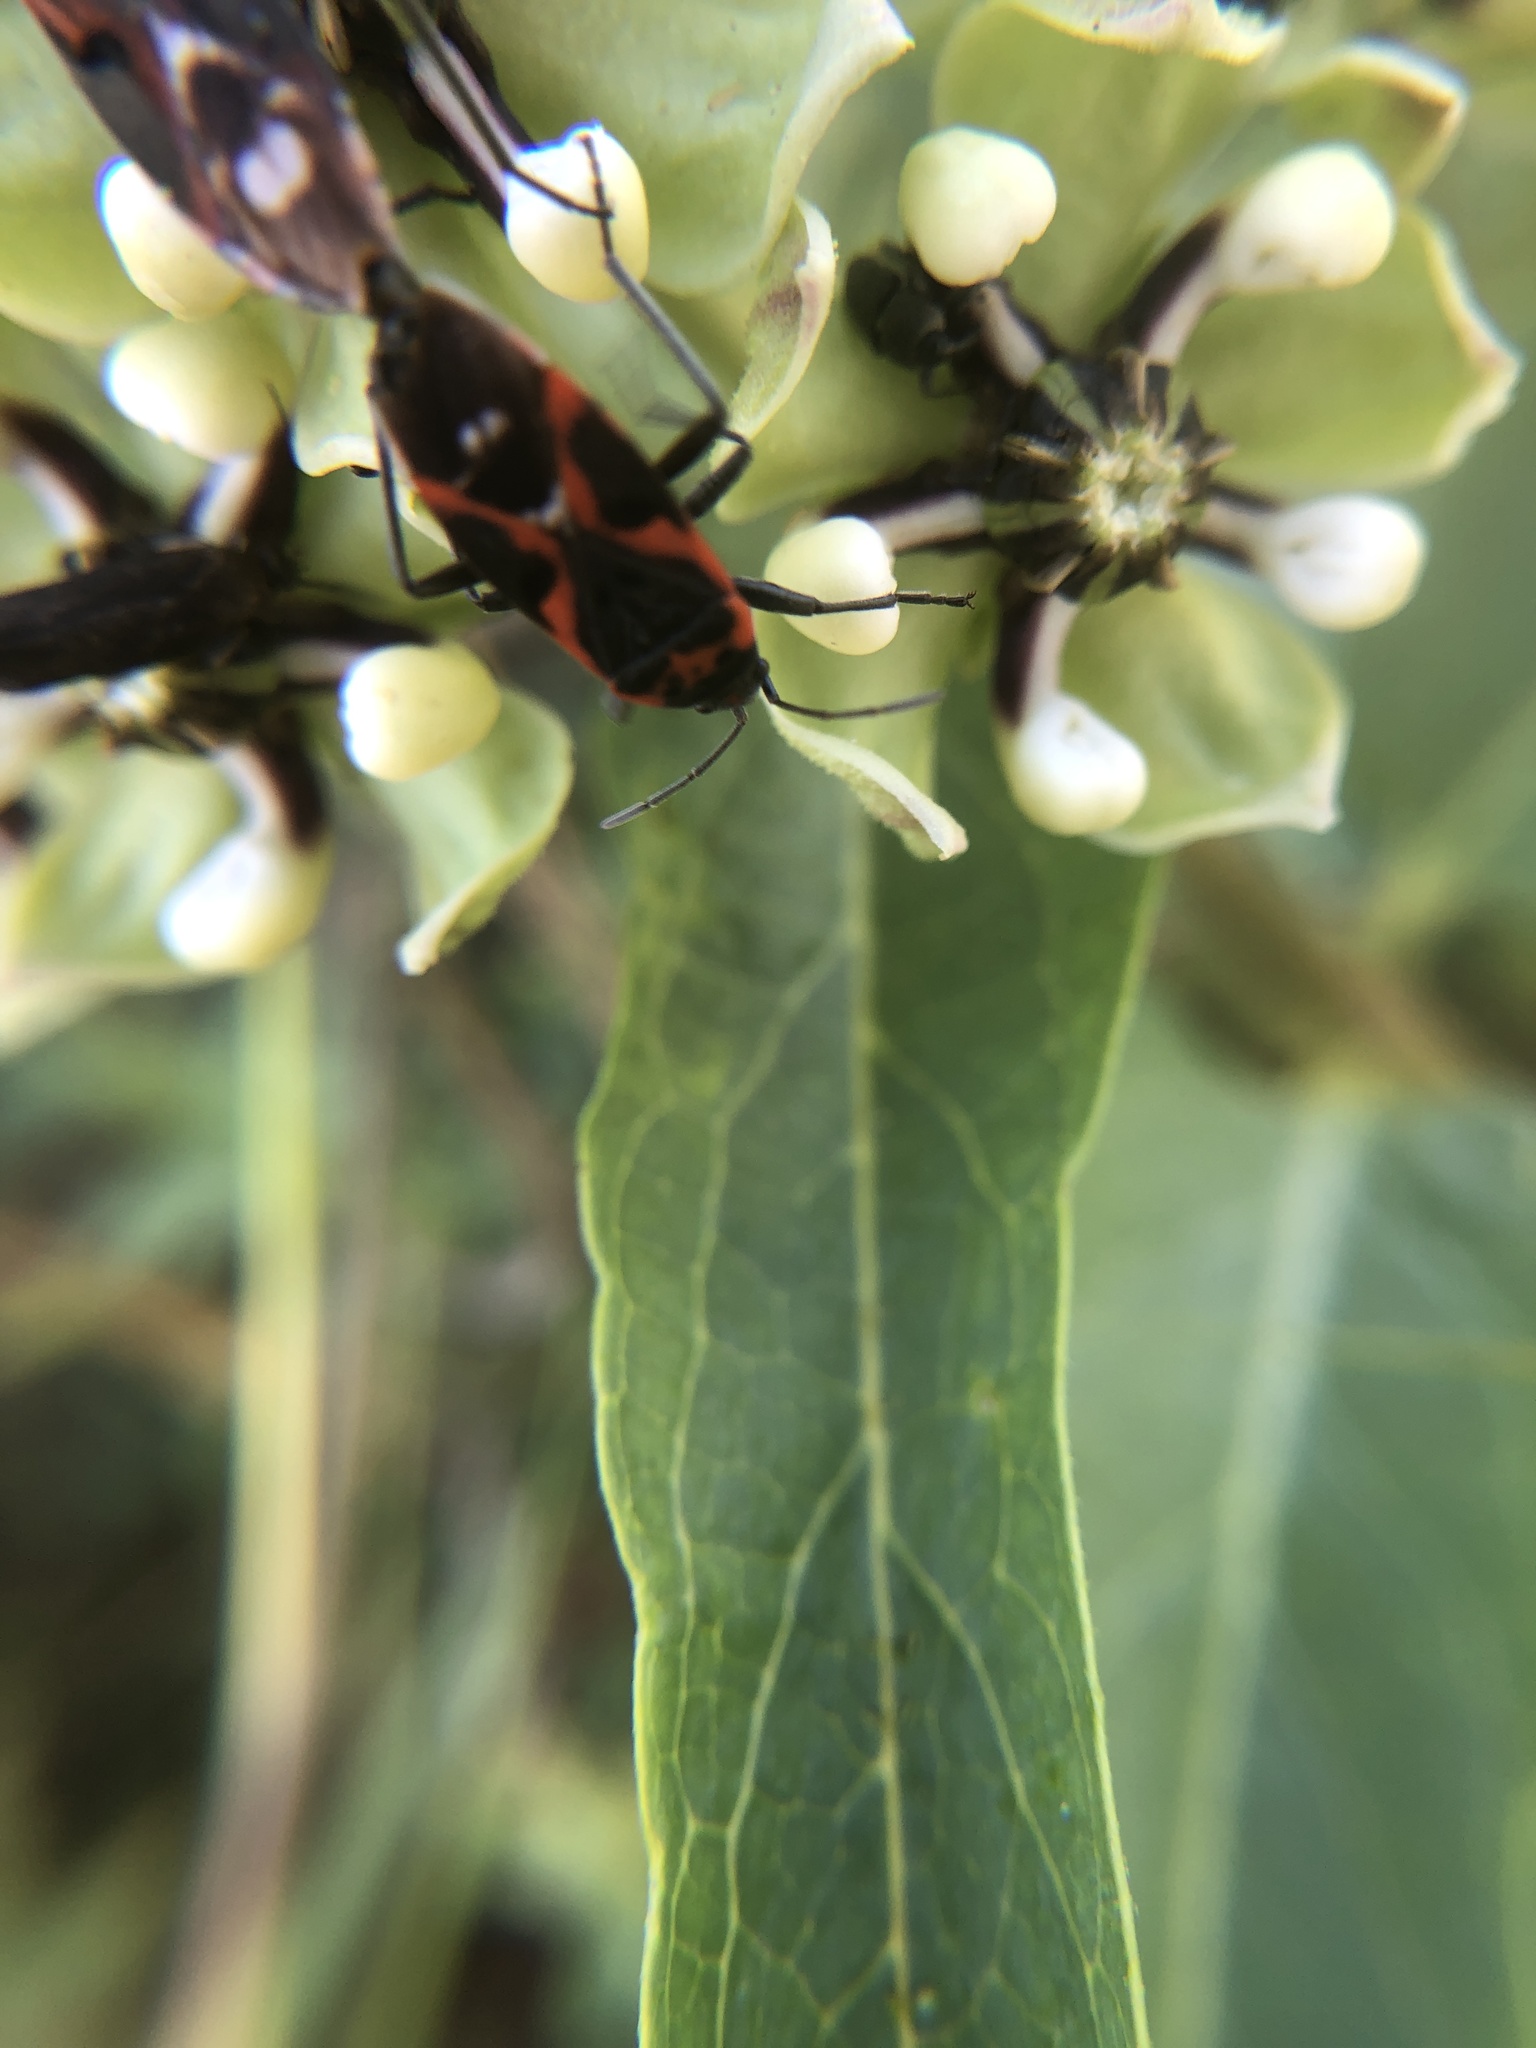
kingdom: Animalia
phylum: Arthropoda
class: Insecta
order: Hemiptera
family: Lygaeidae
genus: Lygaeus
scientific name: Lygaeus kalmii
